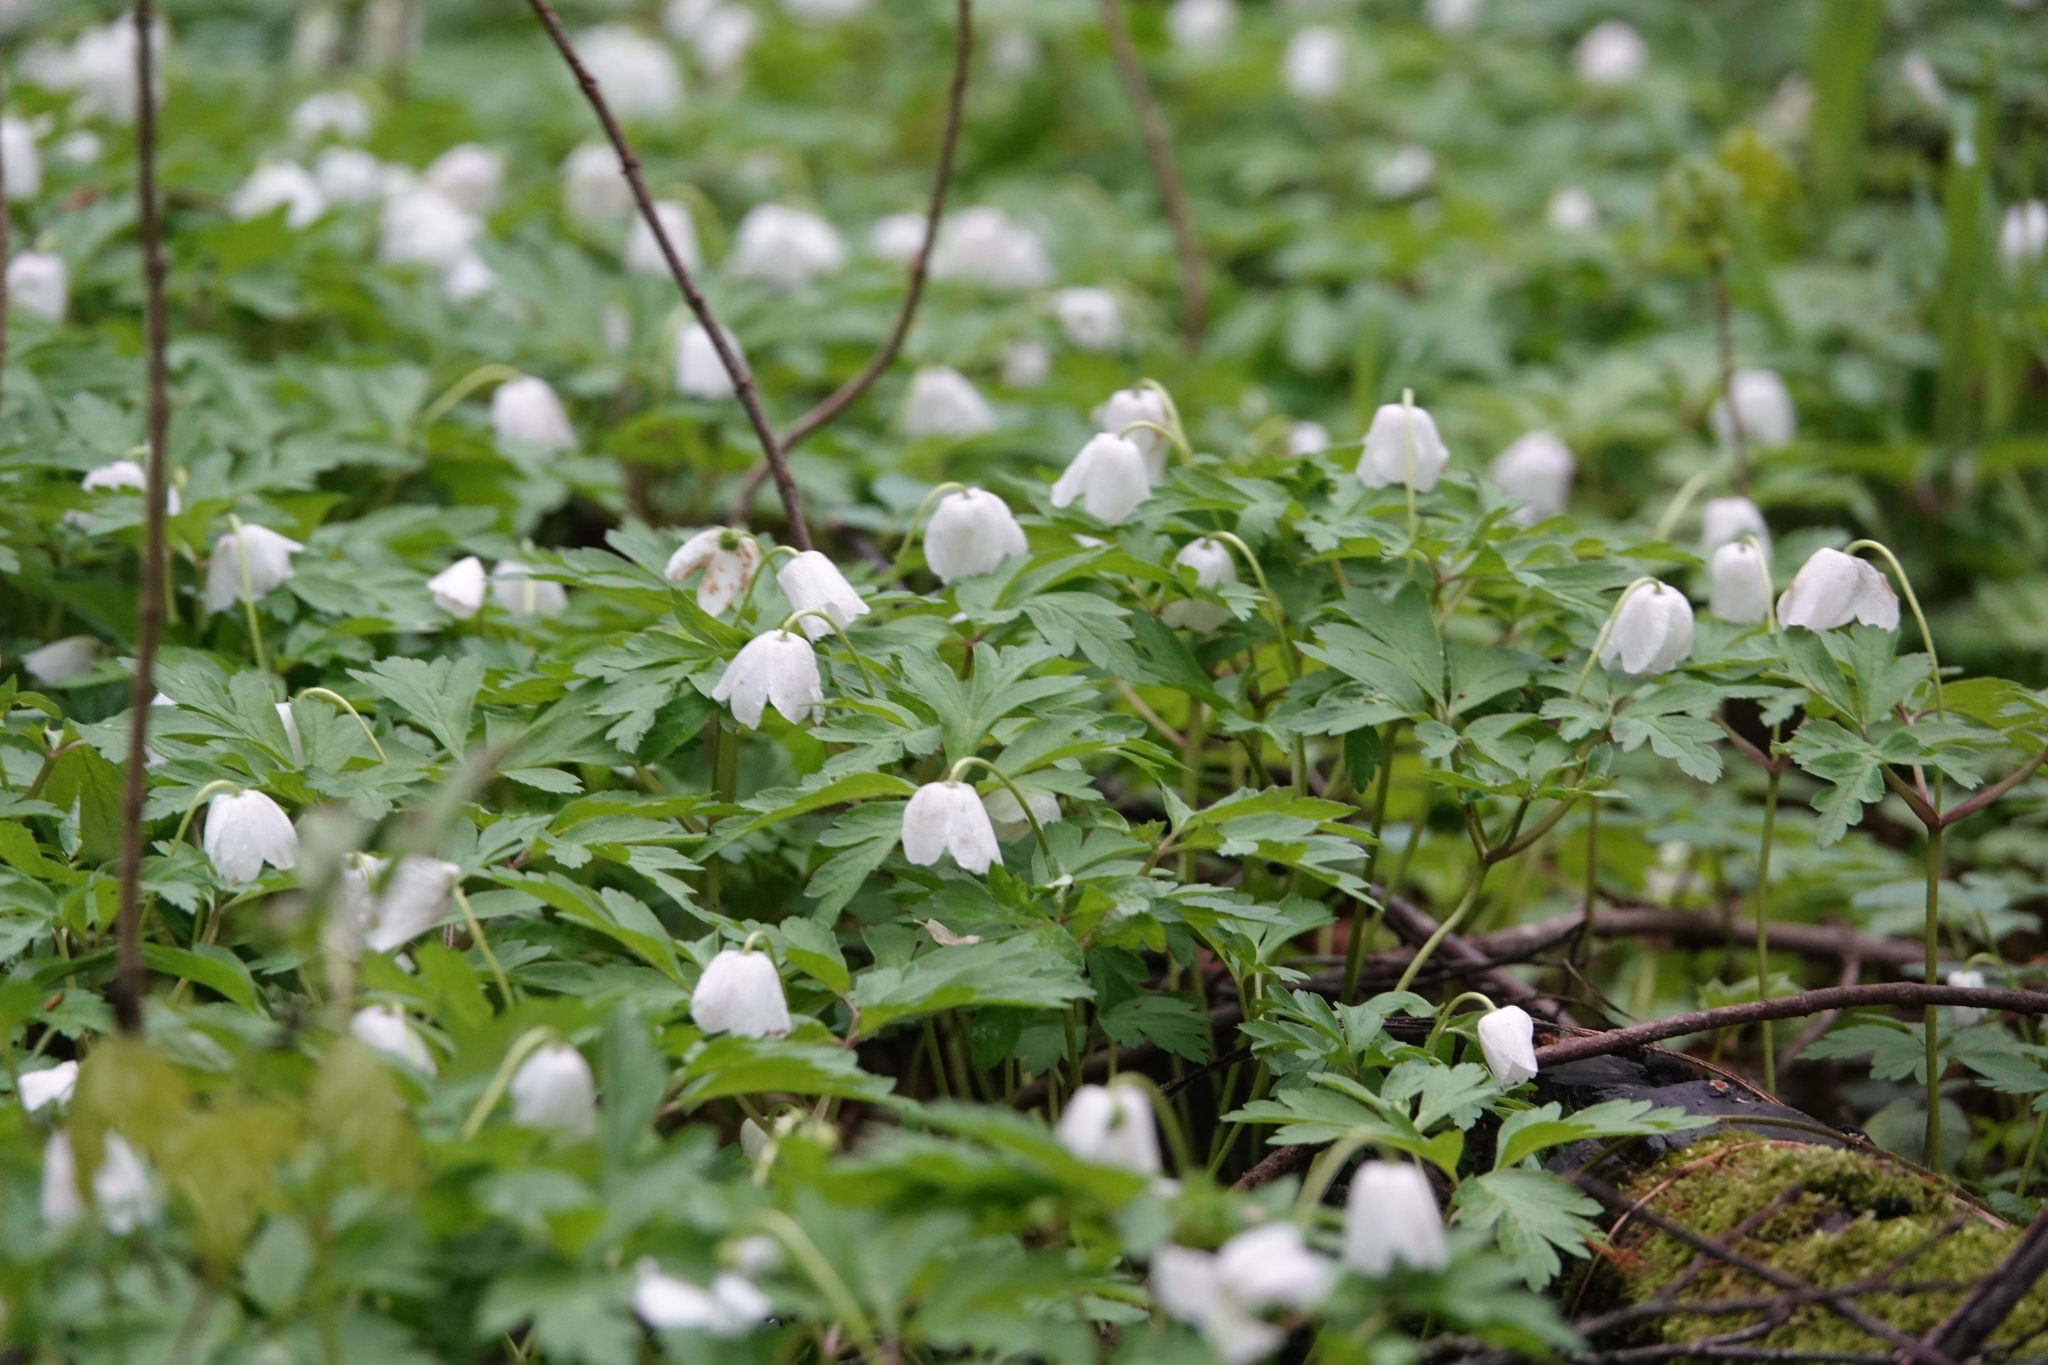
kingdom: Plantae
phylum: Tracheophyta
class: Magnoliopsida
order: Ranunculales
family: Ranunculaceae
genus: Anemone
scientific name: Anemone nemorosa
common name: Wood anemone
